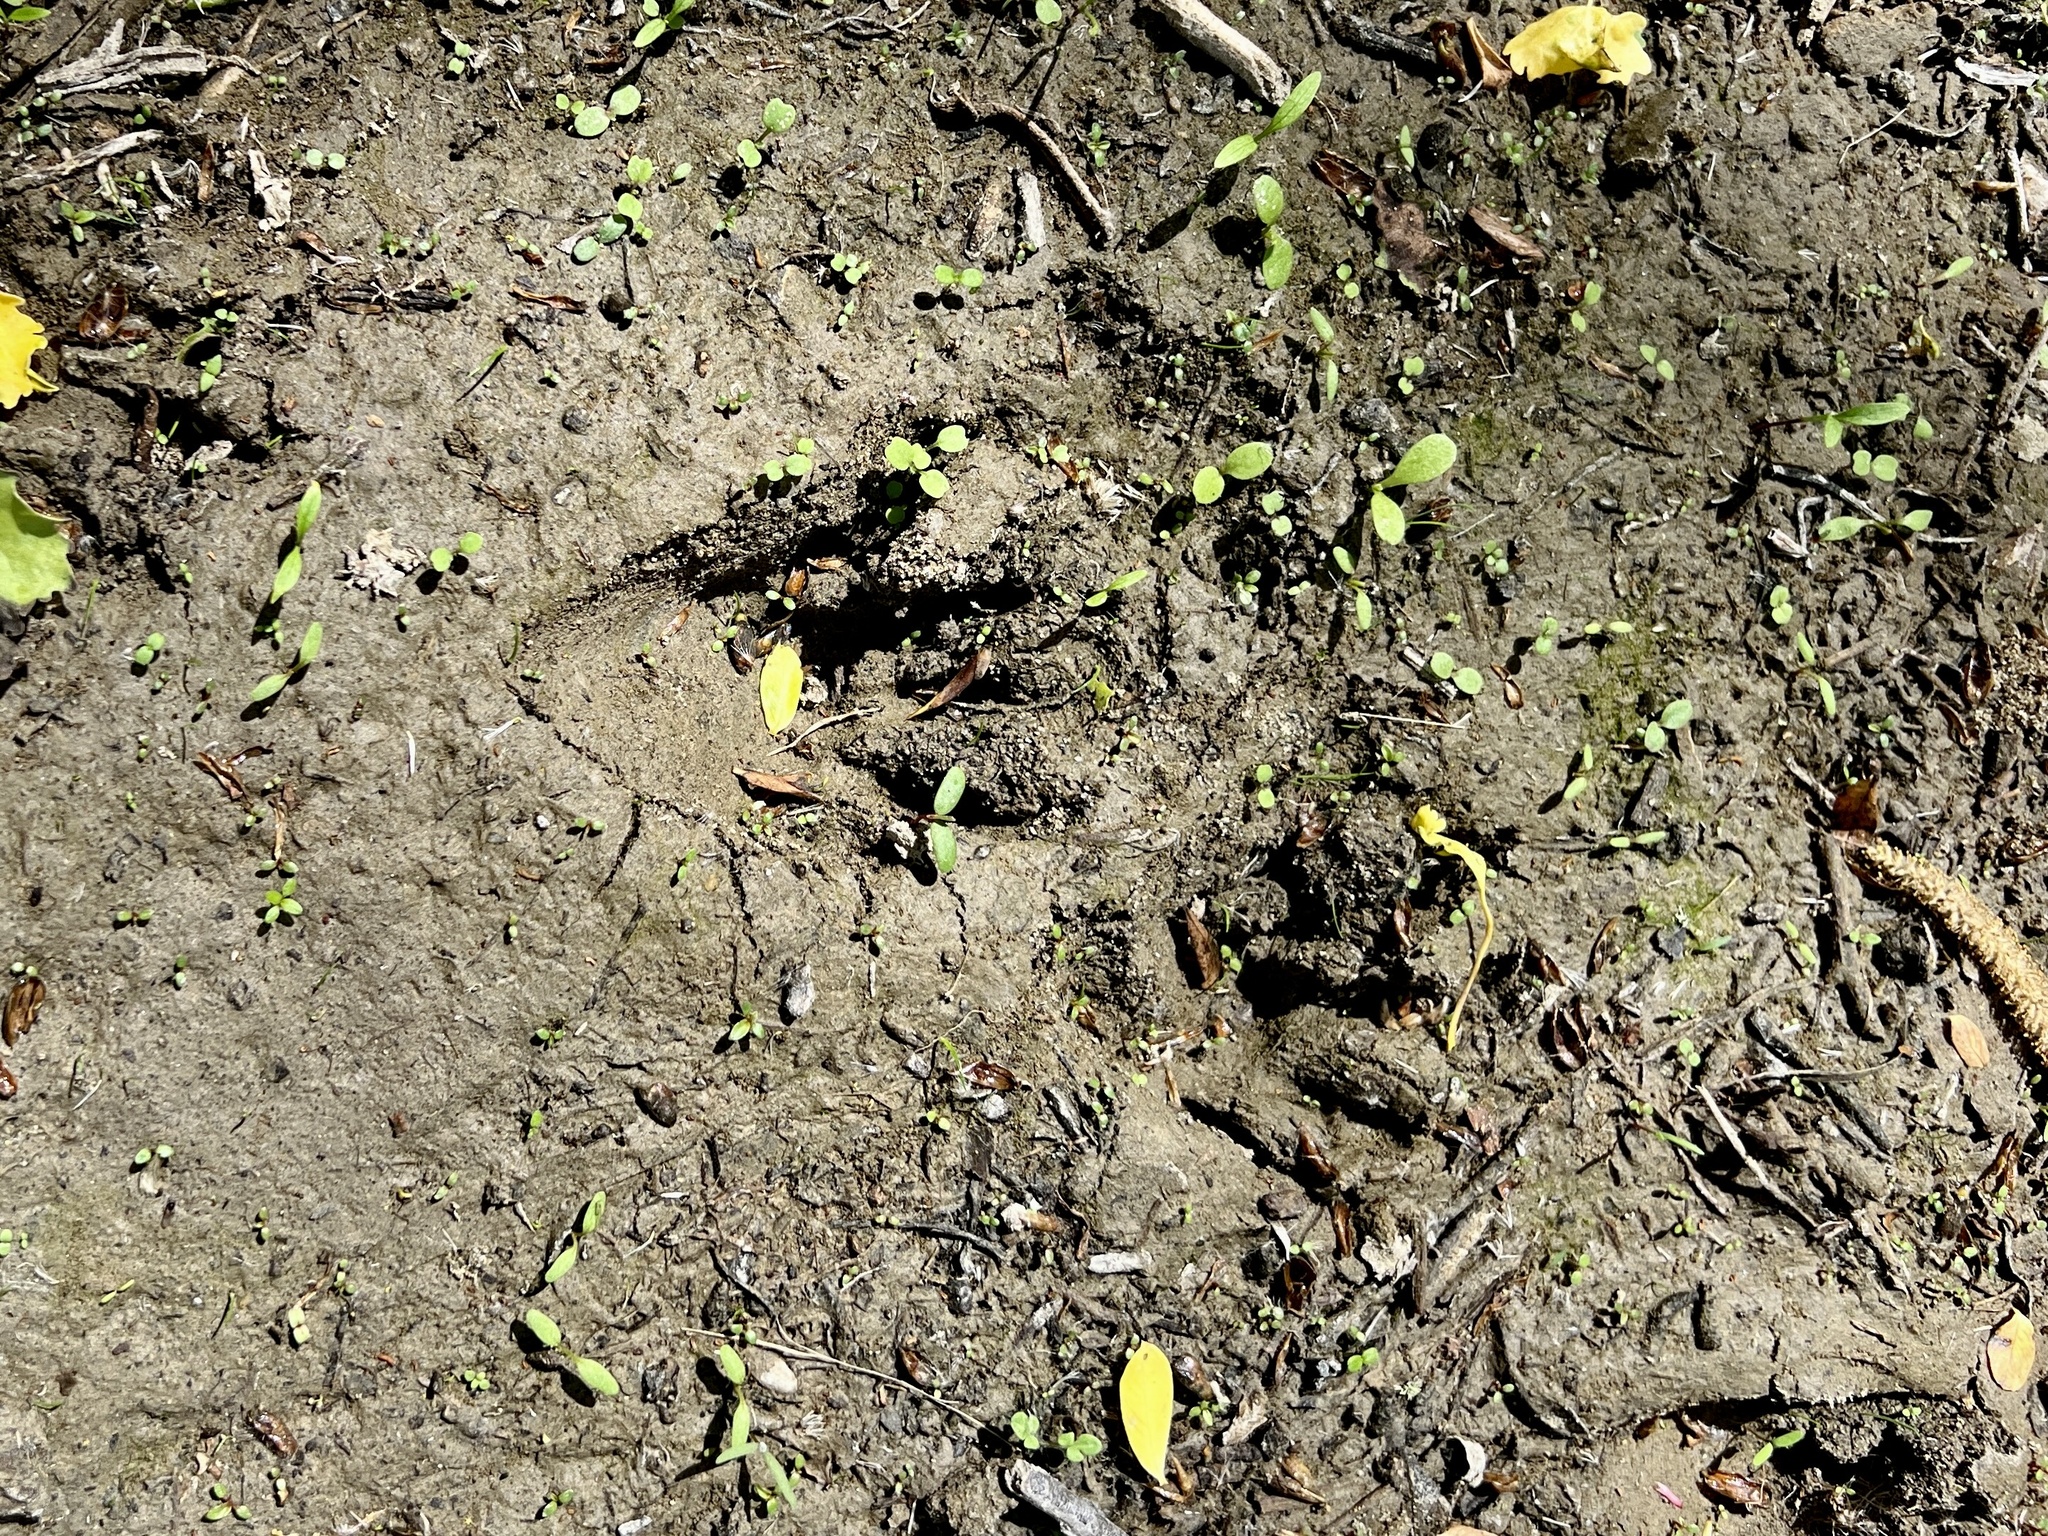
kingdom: Animalia
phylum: Chordata
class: Mammalia
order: Carnivora
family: Procyonidae
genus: Procyon
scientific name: Procyon lotor
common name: Raccoon
